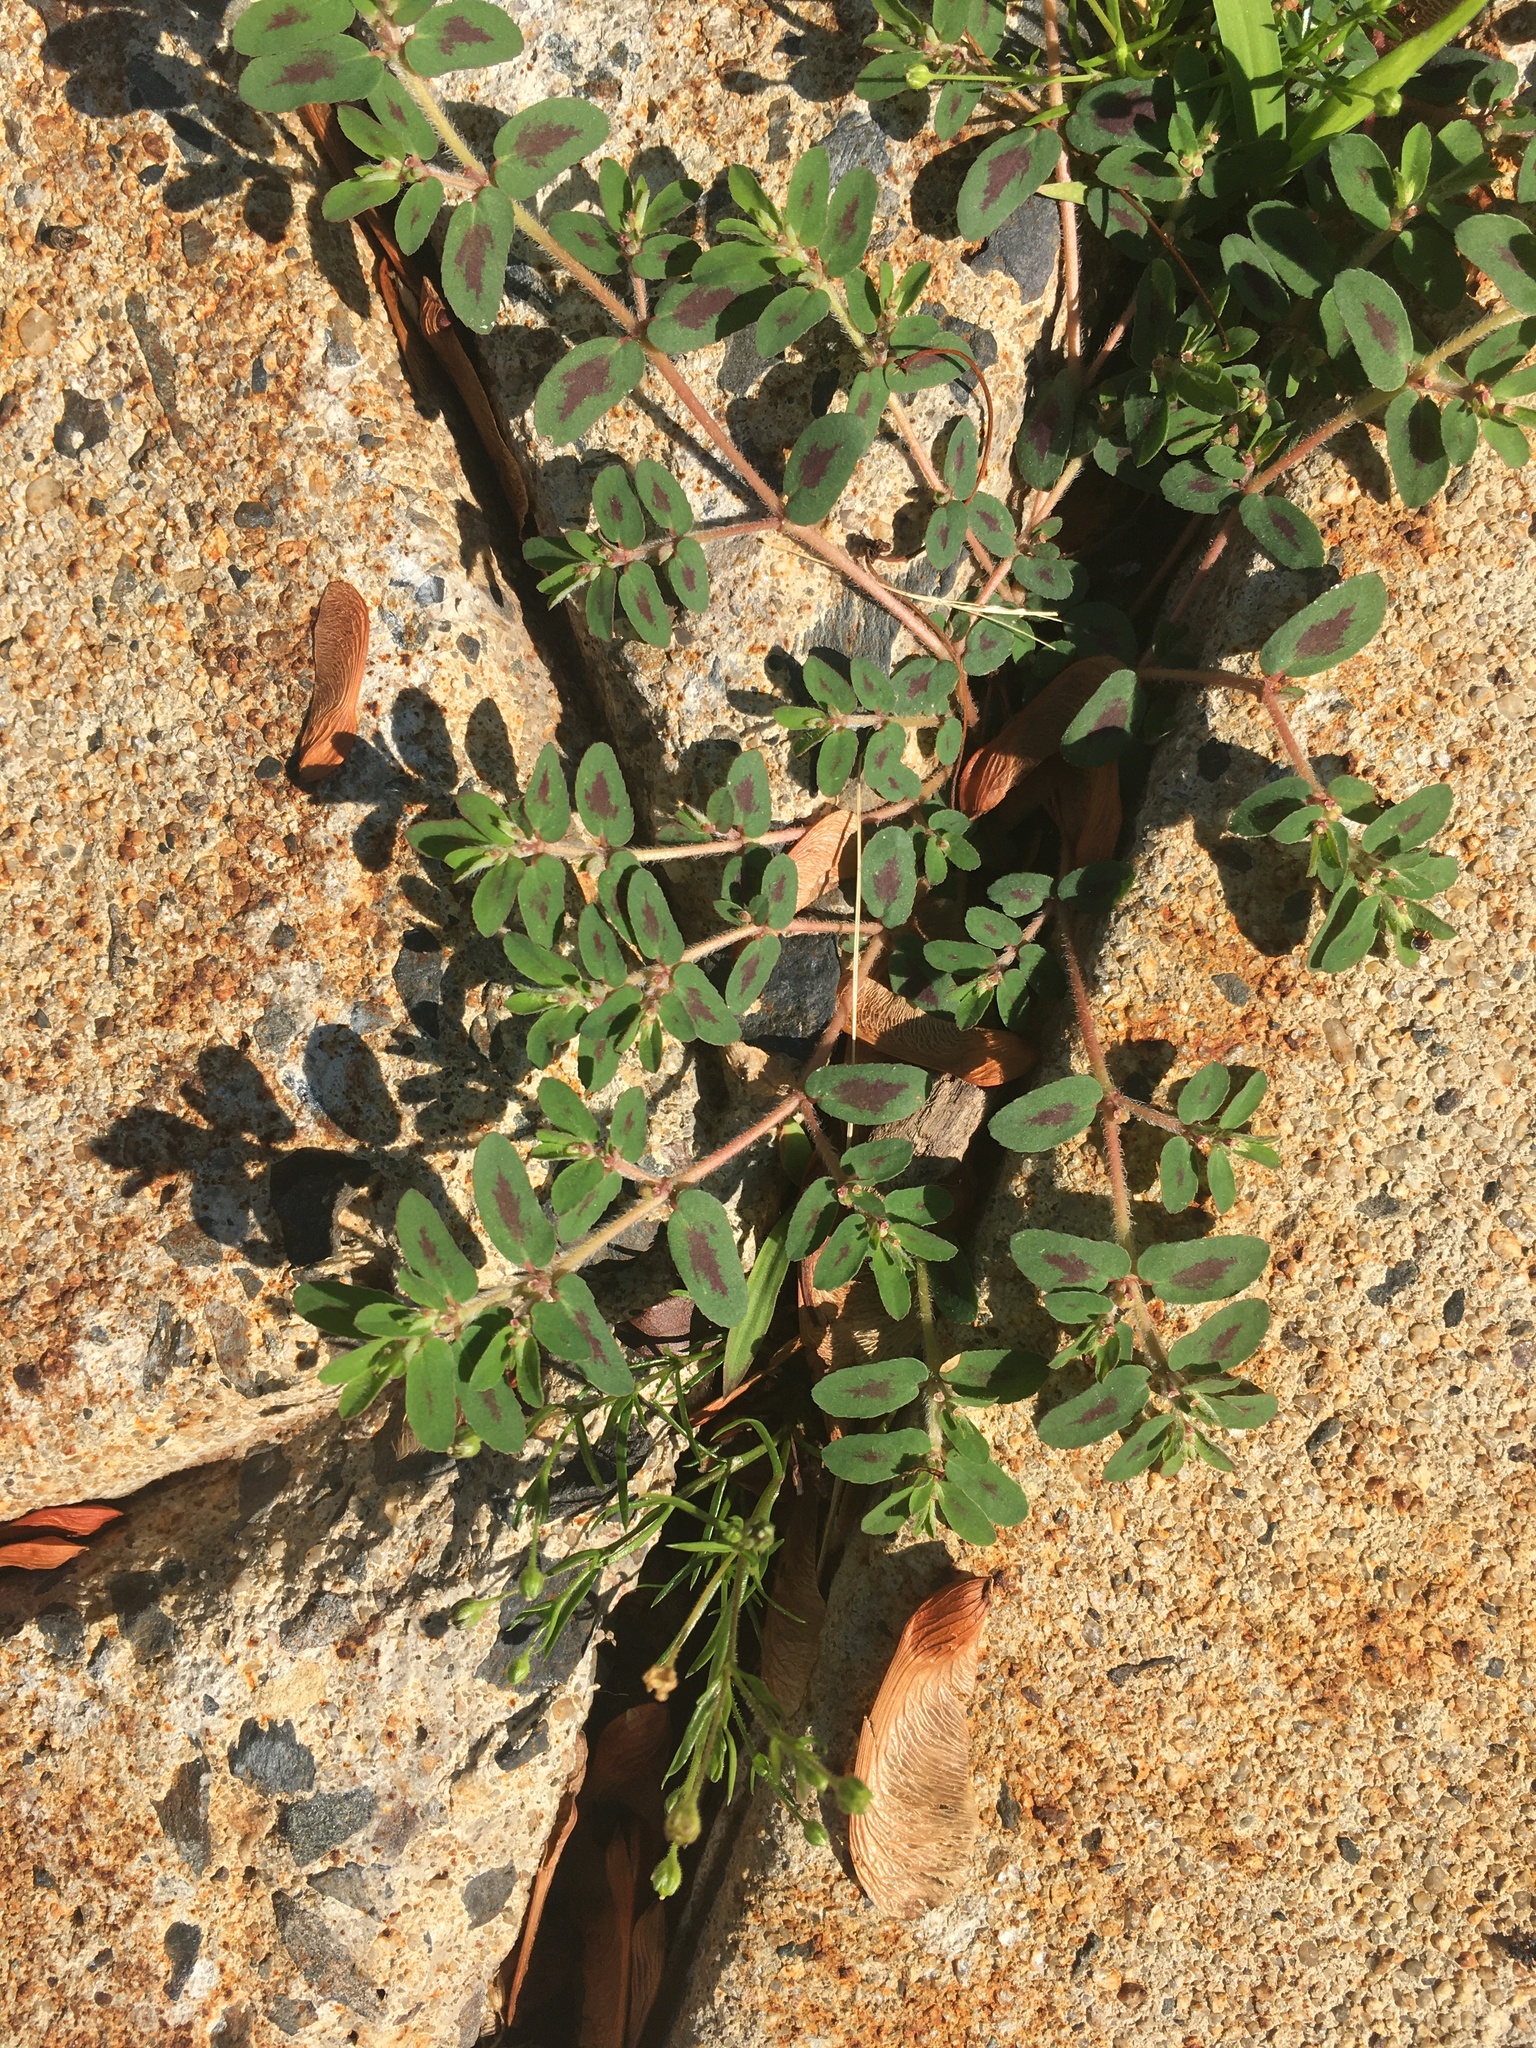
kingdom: Plantae
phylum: Tracheophyta
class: Magnoliopsida
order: Malpighiales
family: Euphorbiaceae
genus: Euphorbia
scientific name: Euphorbia maculata
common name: Spotted spurge
